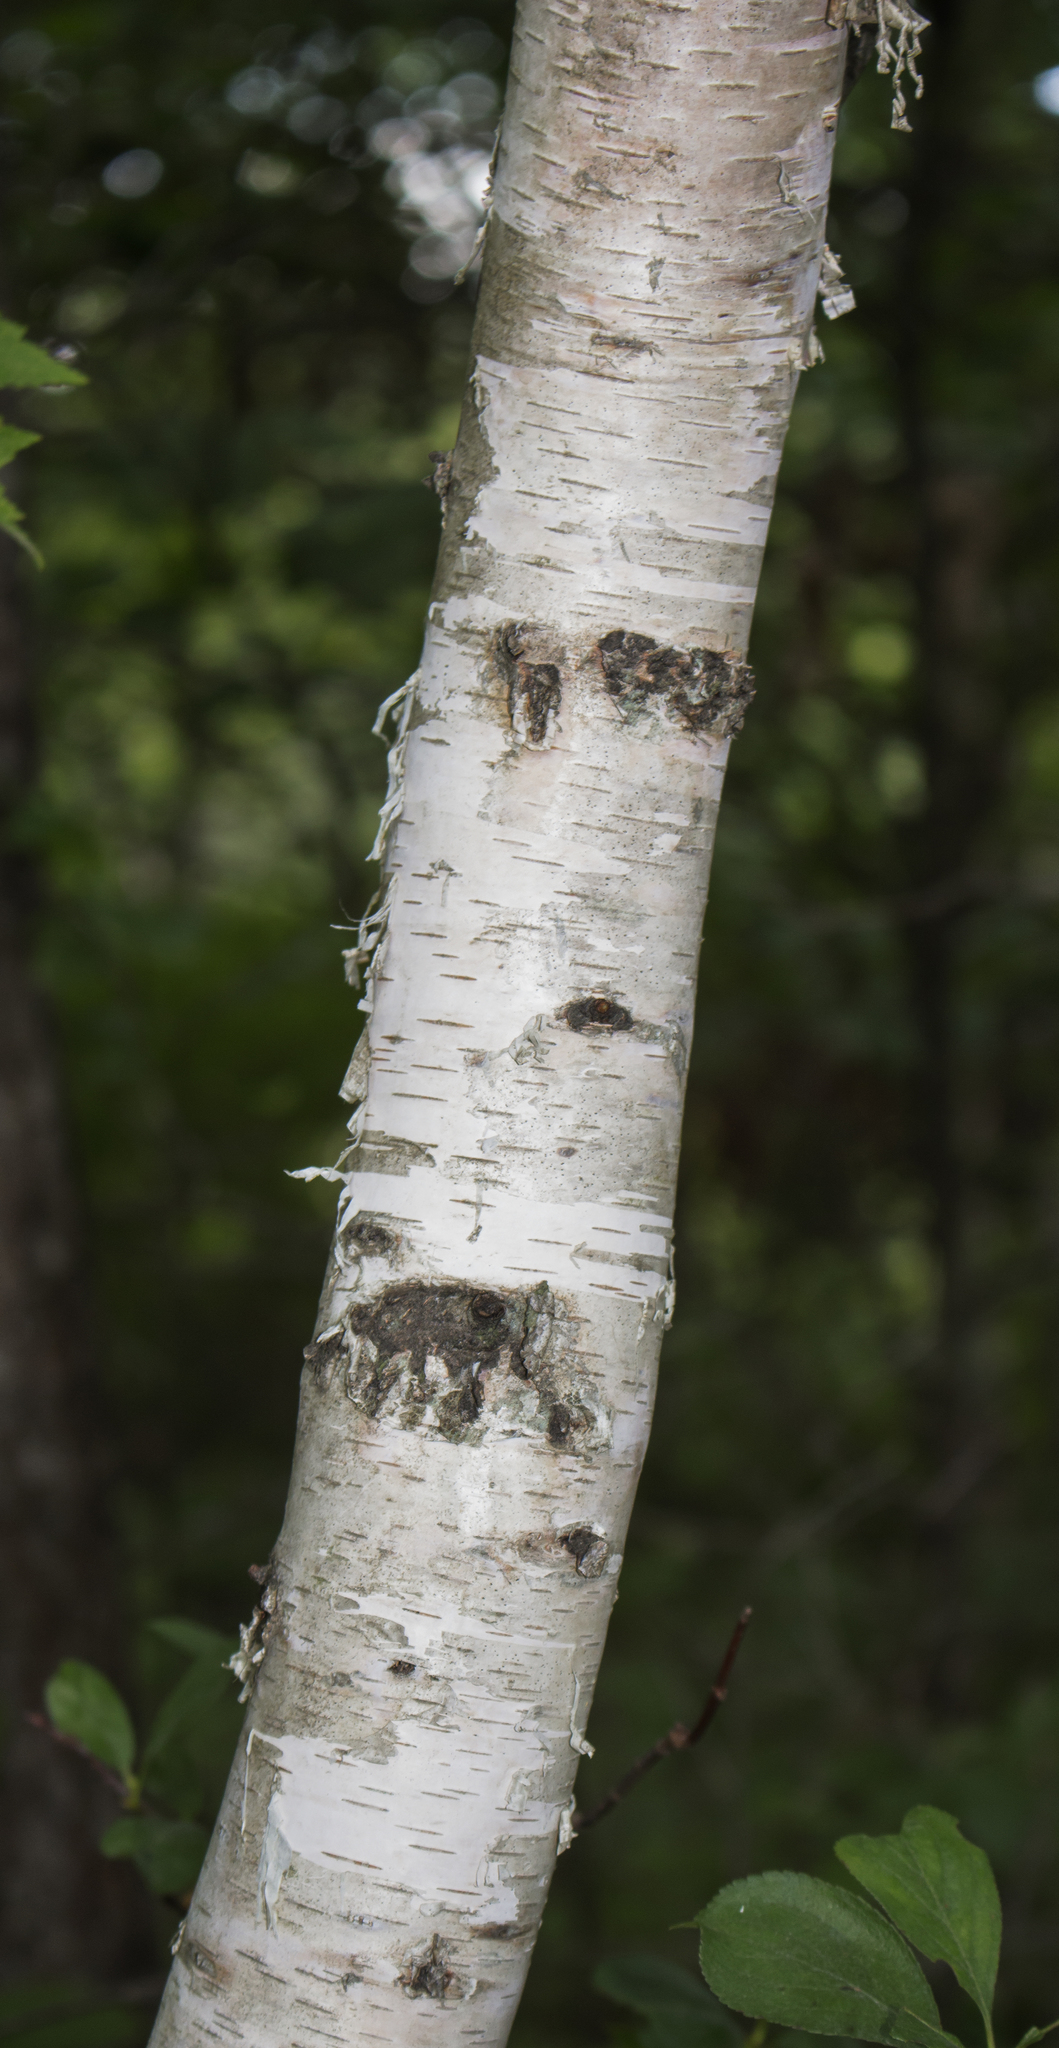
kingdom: Plantae
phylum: Tracheophyta
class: Magnoliopsida
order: Fagales
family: Betulaceae
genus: Betula
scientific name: Betula papyrifera
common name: Paper birch
